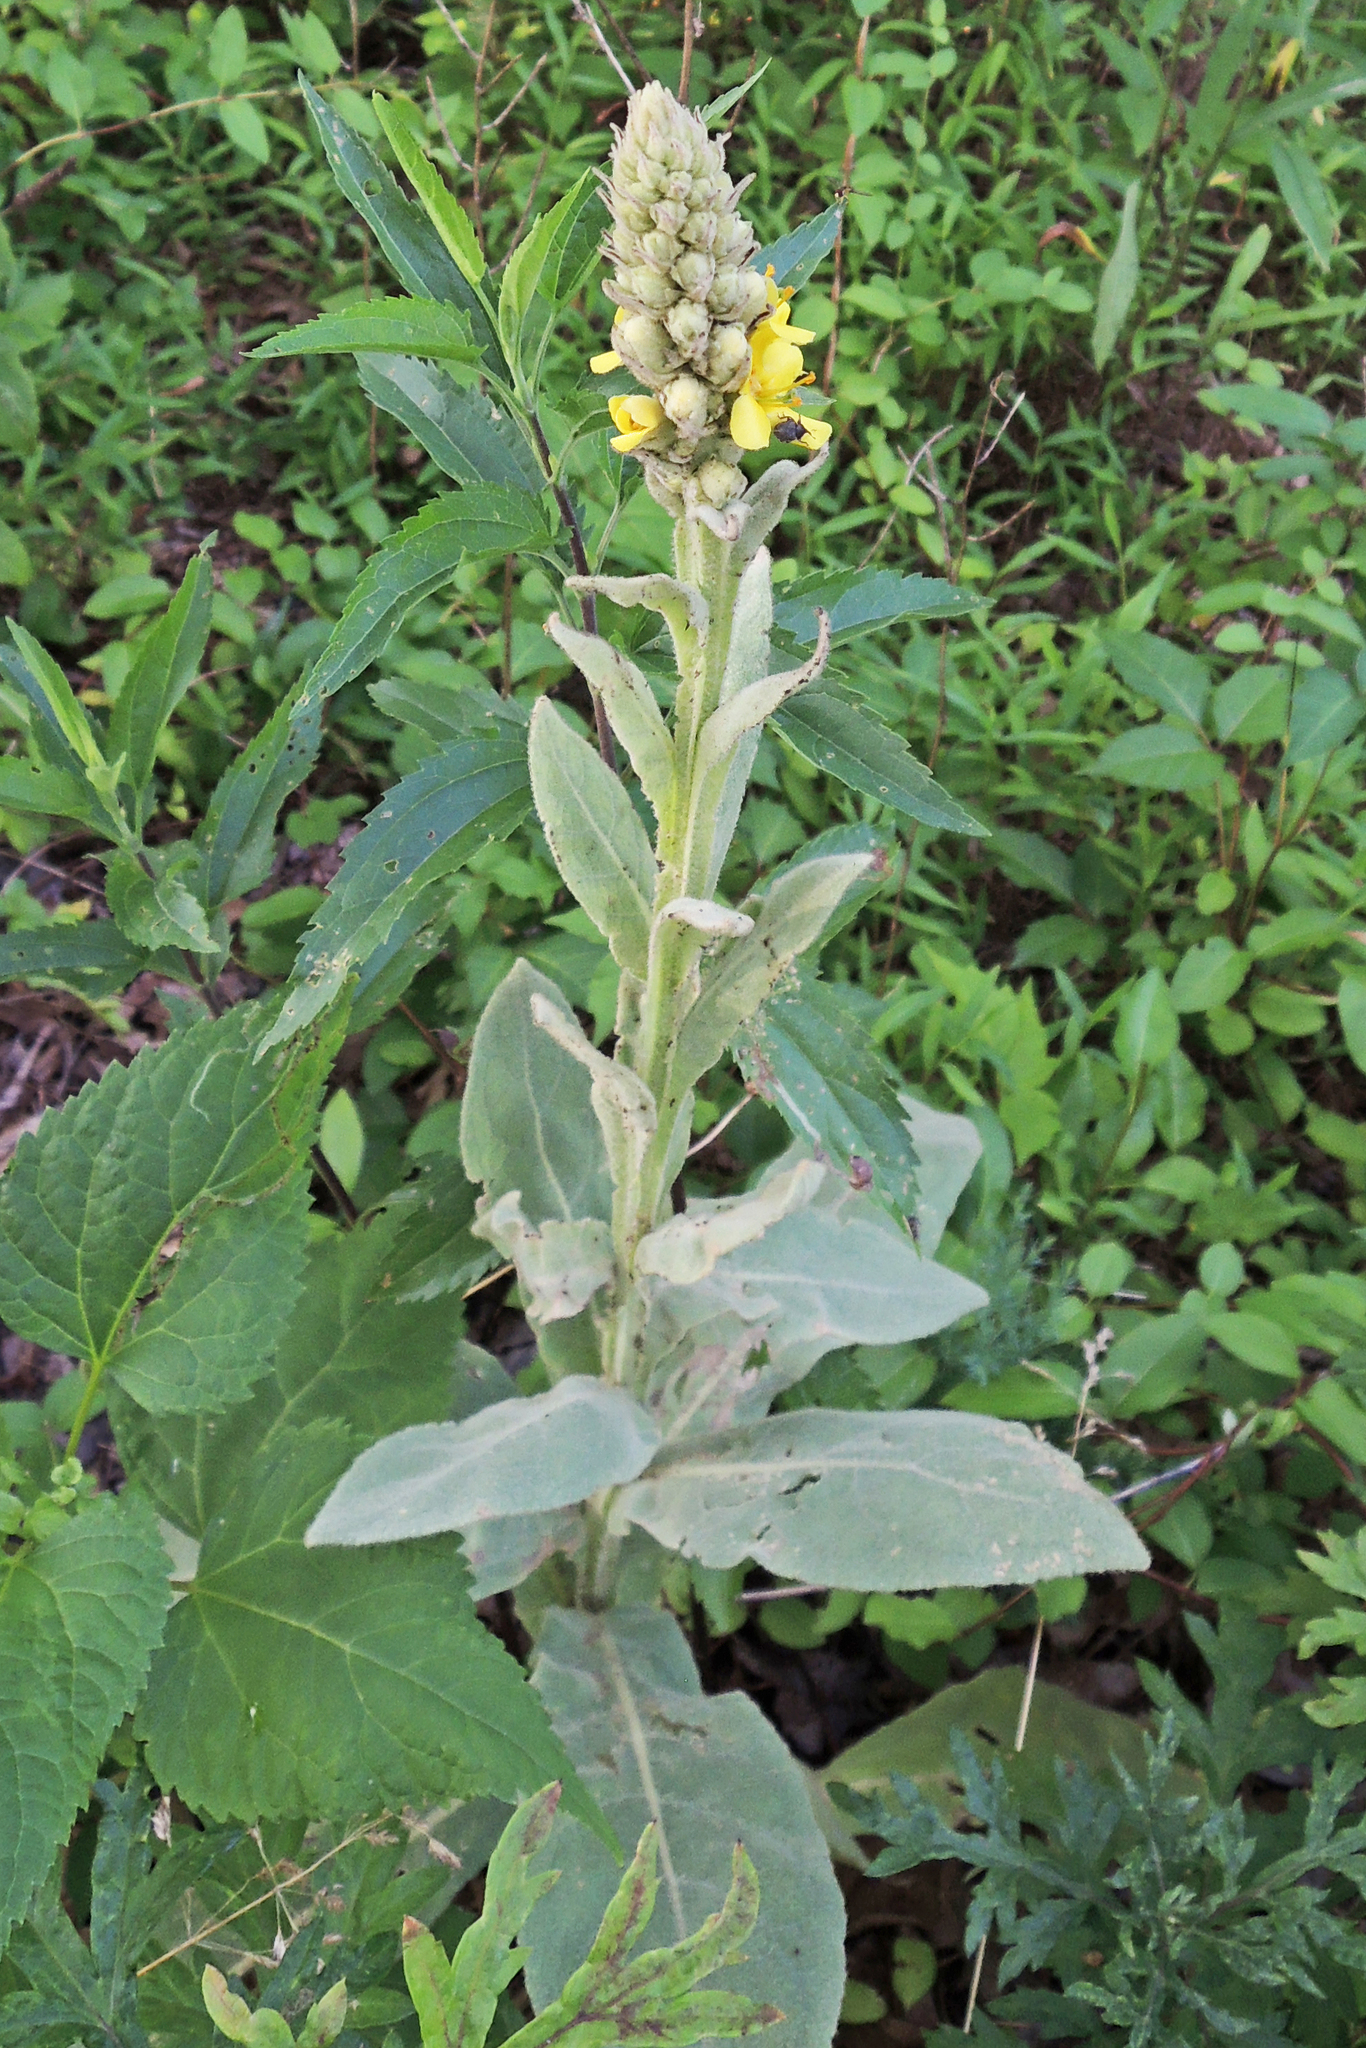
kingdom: Plantae
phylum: Tracheophyta
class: Magnoliopsida
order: Lamiales
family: Scrophulariaceae
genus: Verbascum
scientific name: Verbascum thapsus
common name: Common mullein
